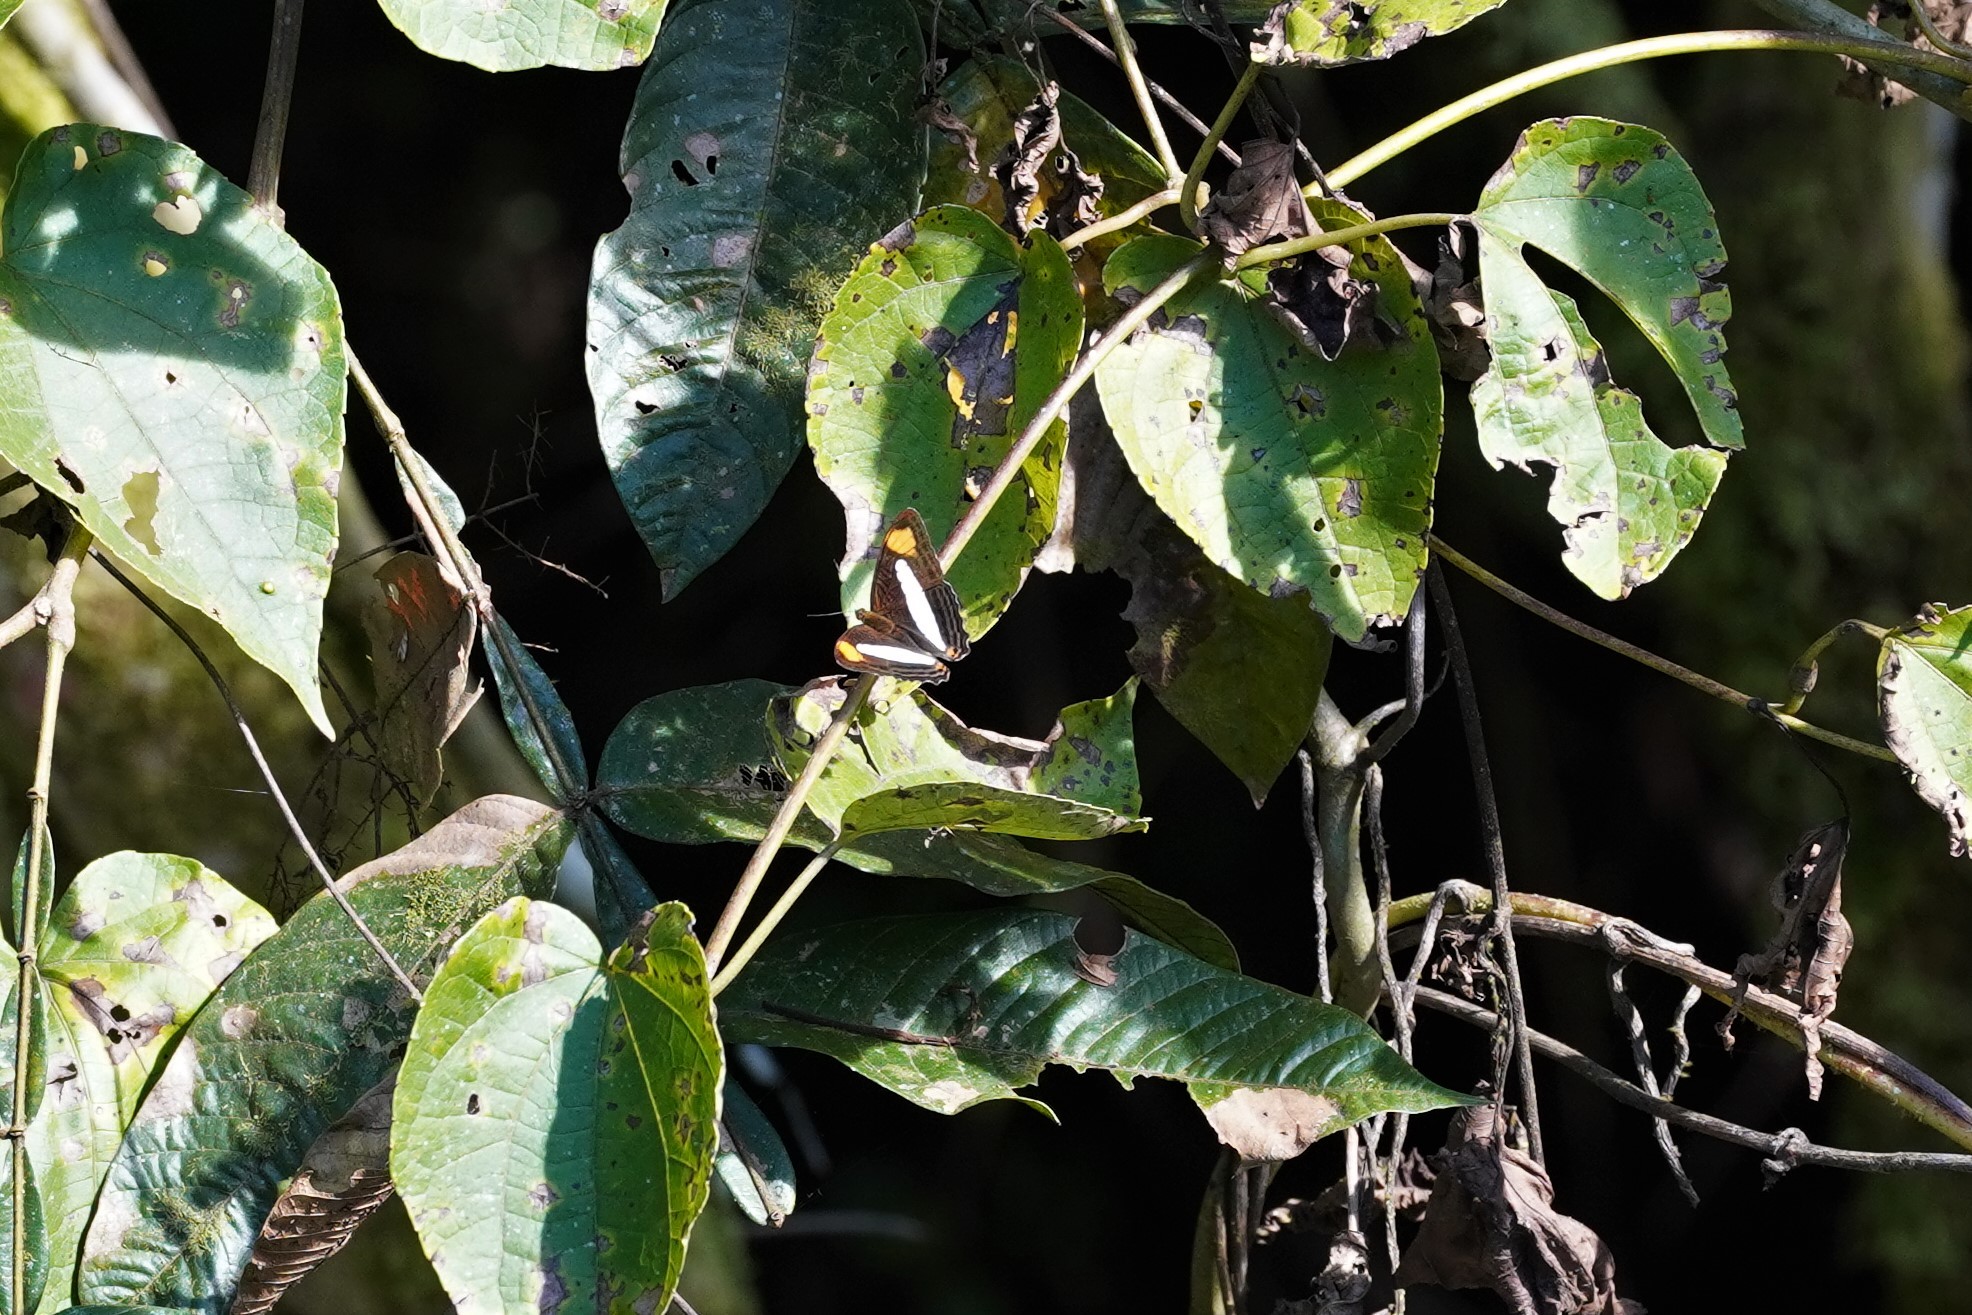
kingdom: Animalia
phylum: Arthropoda
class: Insecta
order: Lepidoptera
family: Nymphalidae
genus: Limenitis
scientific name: Limenitis thessalia
